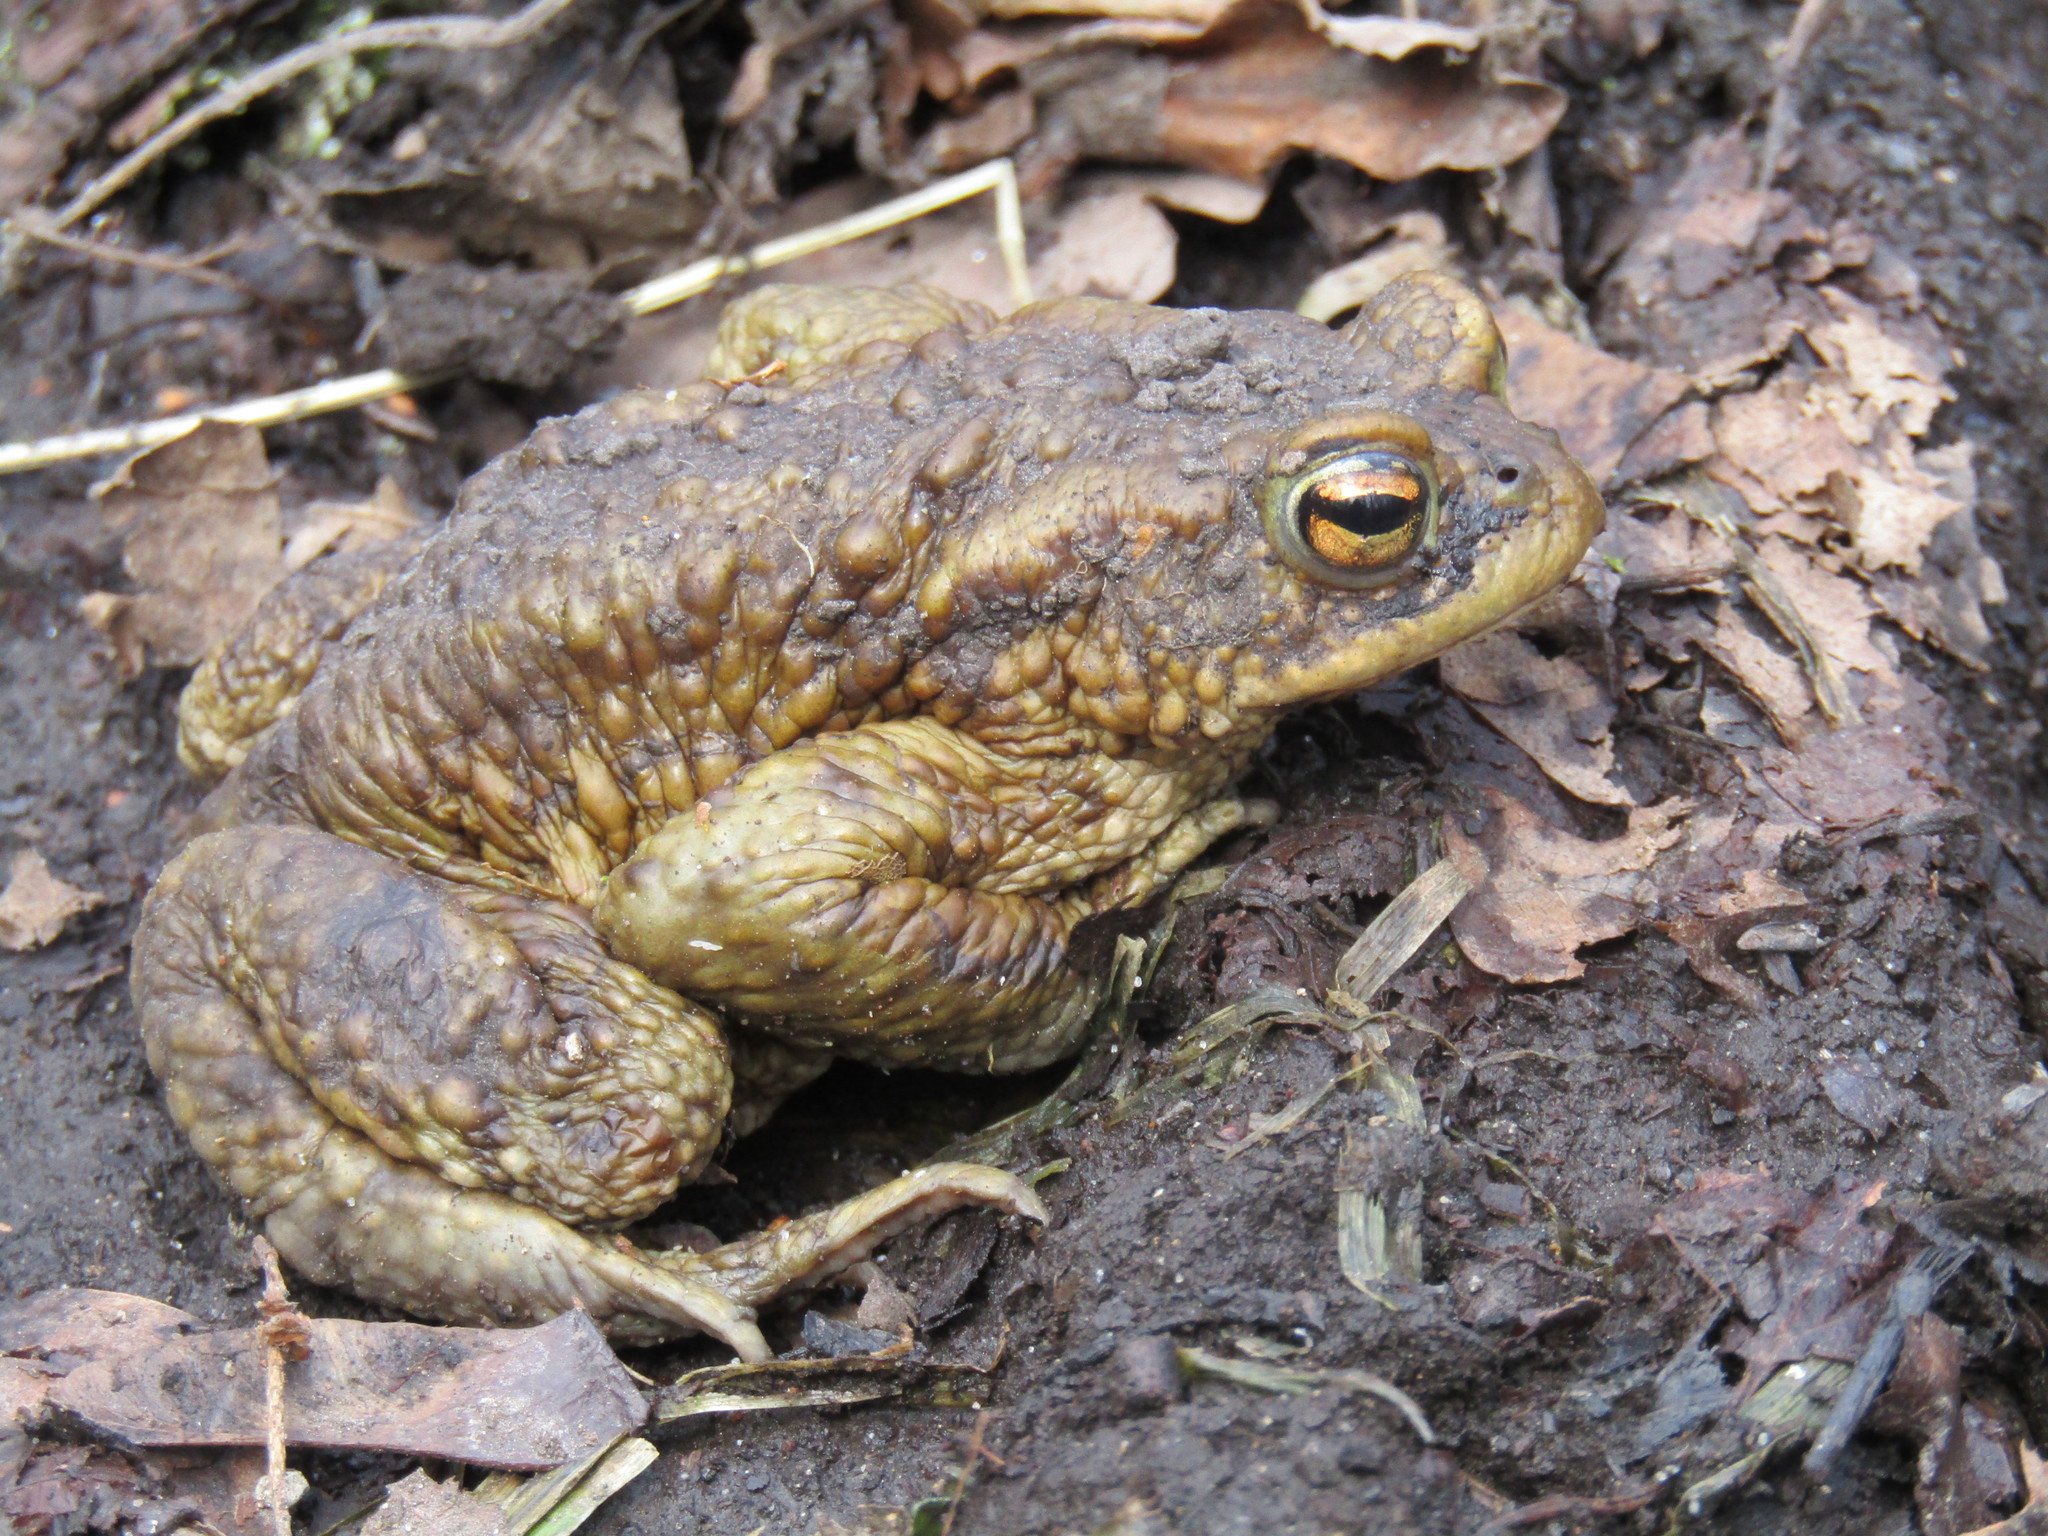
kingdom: Animalia
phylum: Chordata
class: Amphibia
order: Anura
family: Bufonidae
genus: Bufo
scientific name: Bufo bufo
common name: Common toad
